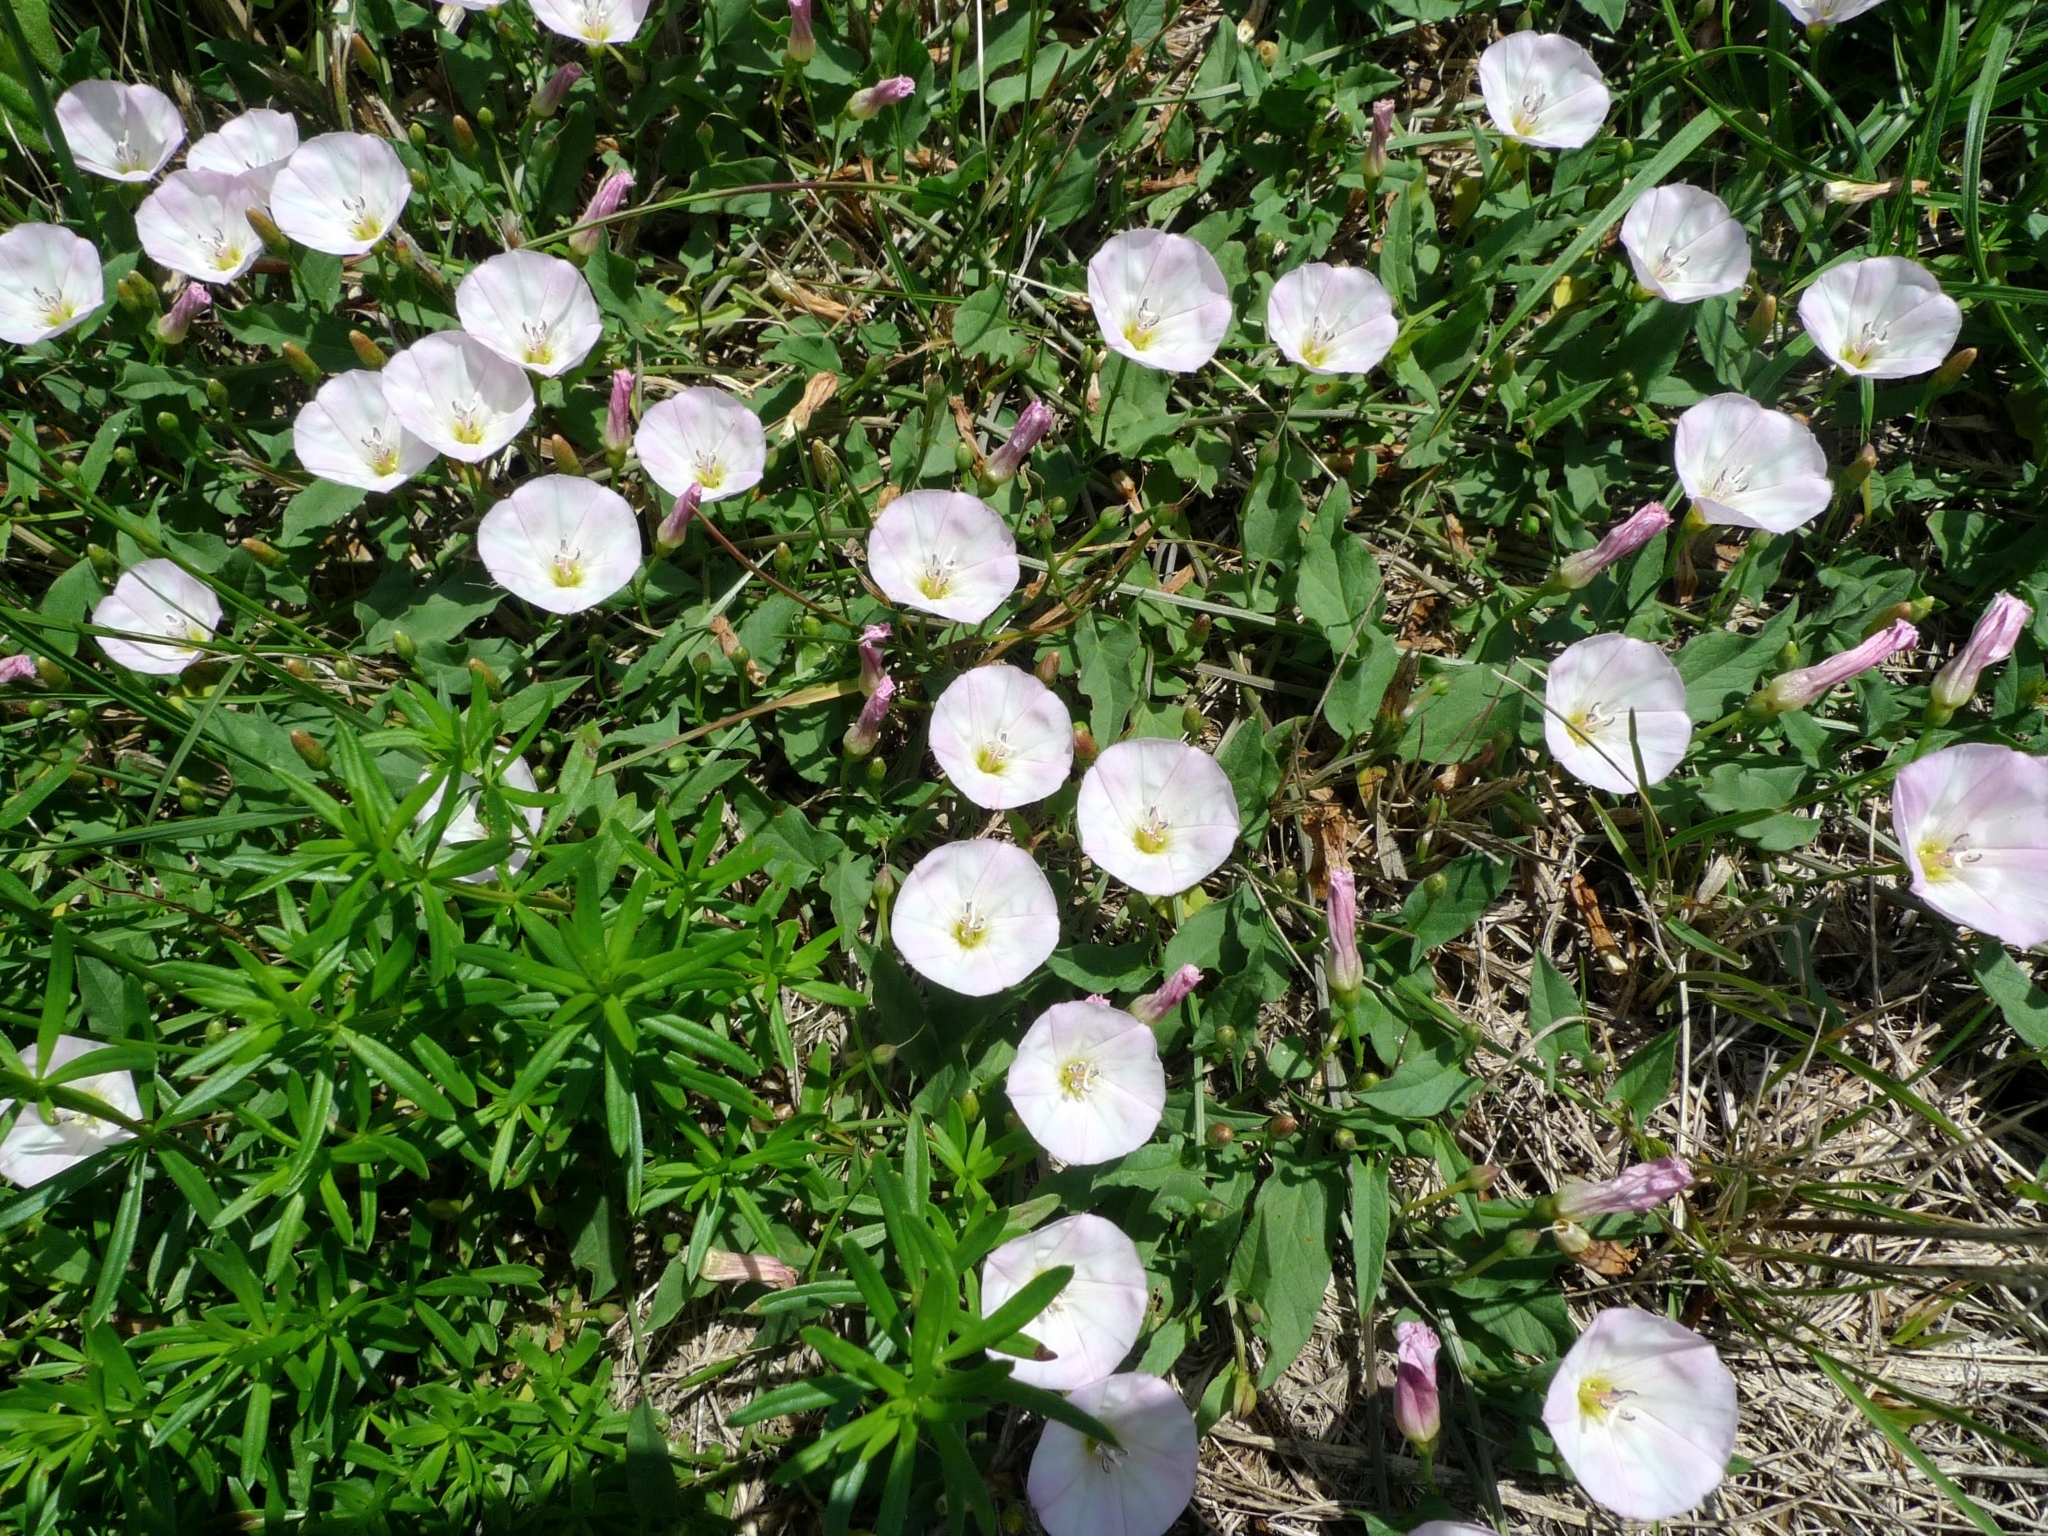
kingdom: Plantae
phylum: Tracheophyta
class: Magnoliopsida
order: Solanales
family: Convolvulaceae
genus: Convolvulus
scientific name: Convolvulus arvensis
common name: Field bindweed
